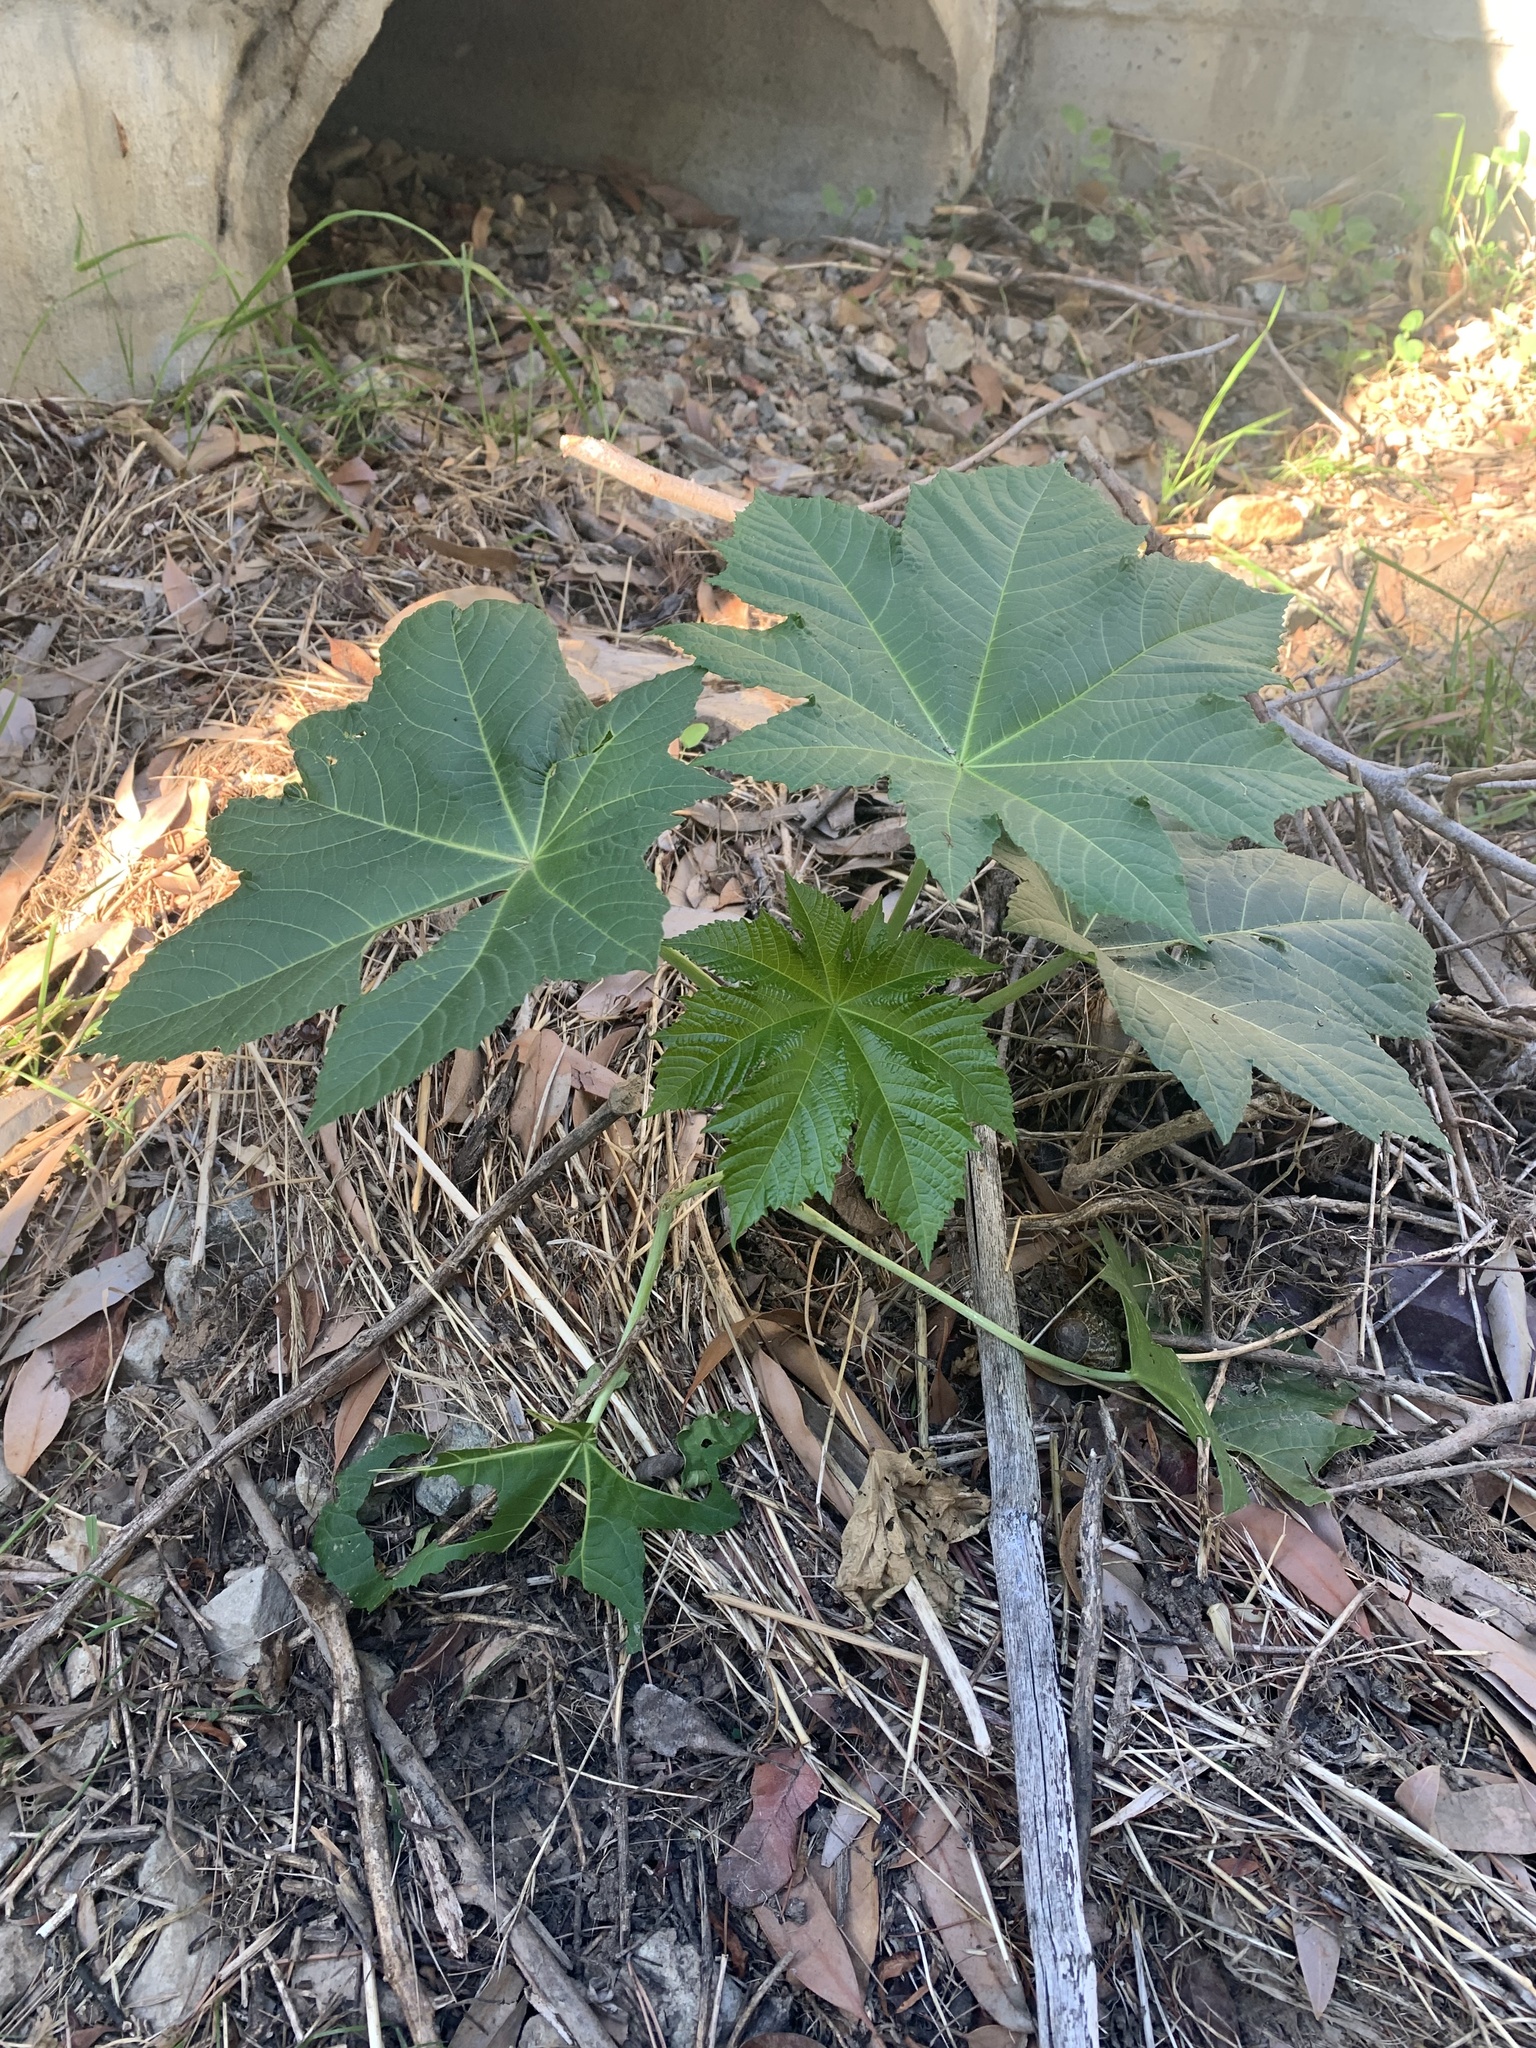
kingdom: Plantae
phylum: Tracheophyta
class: Magnoliopsida
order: Malpighiales
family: Euphorbiaceae
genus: Ricinus
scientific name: Ricinus communis
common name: Castor-oil-plant
